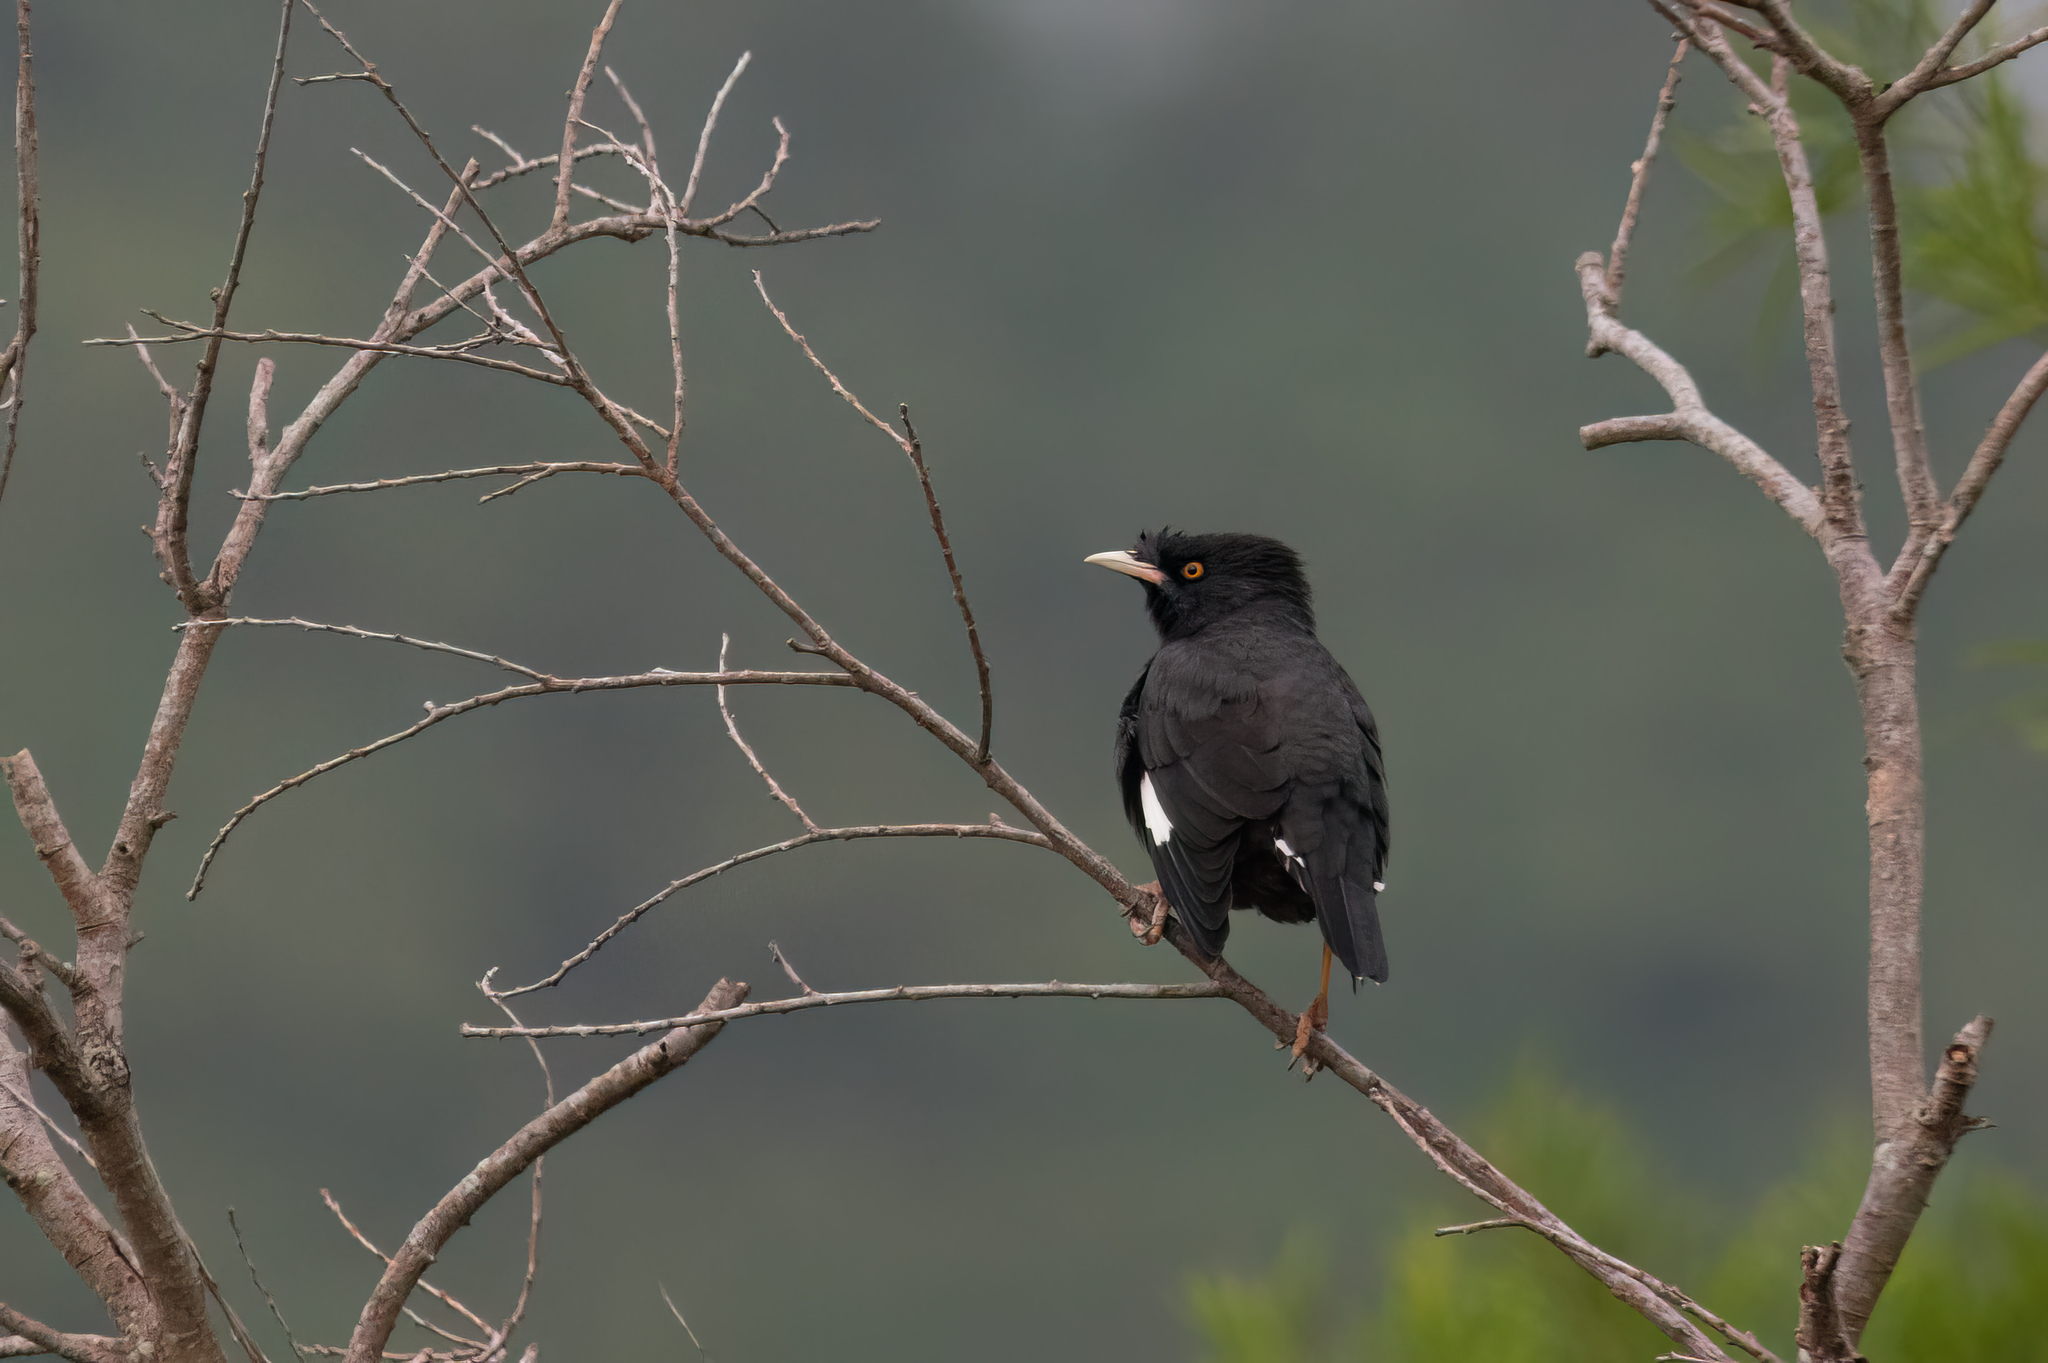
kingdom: Animalia
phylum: Chordata
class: Aves
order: Passeriformes
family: Sturnidae
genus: Acridotheres
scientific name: Acridotheres cristatellus
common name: Crested myna
